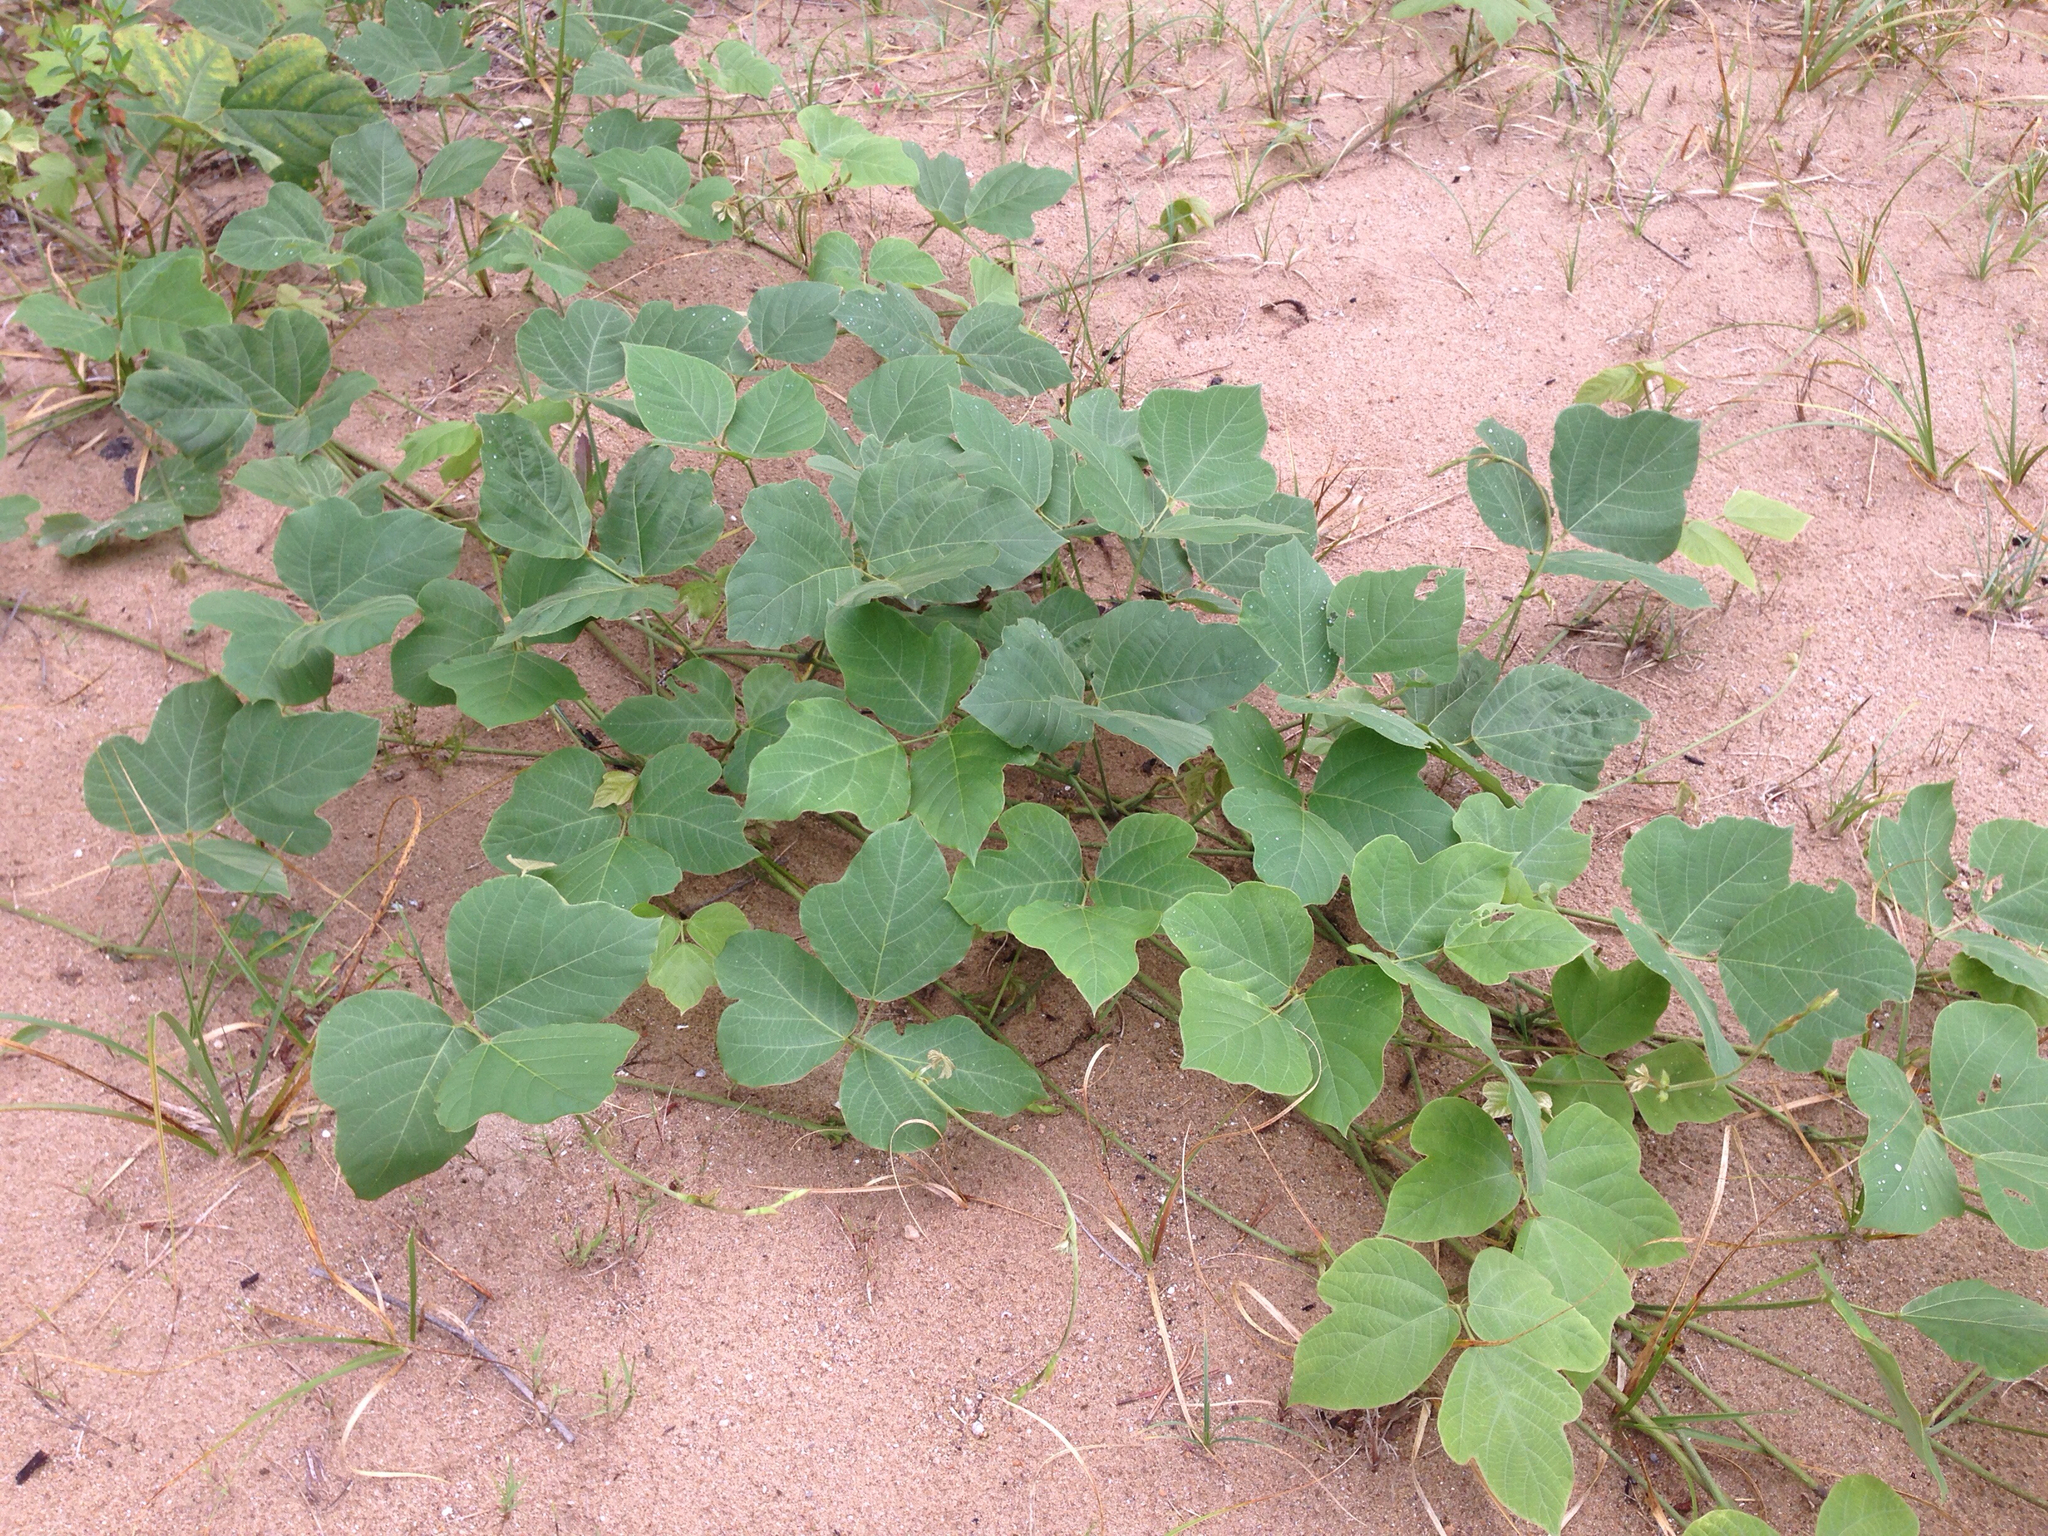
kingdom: Plantae
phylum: Tracheophyta
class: Magnoliopsida
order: Fabales
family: Fabaceae
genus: Pueraria
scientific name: Pueraria montana
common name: Kudzu
